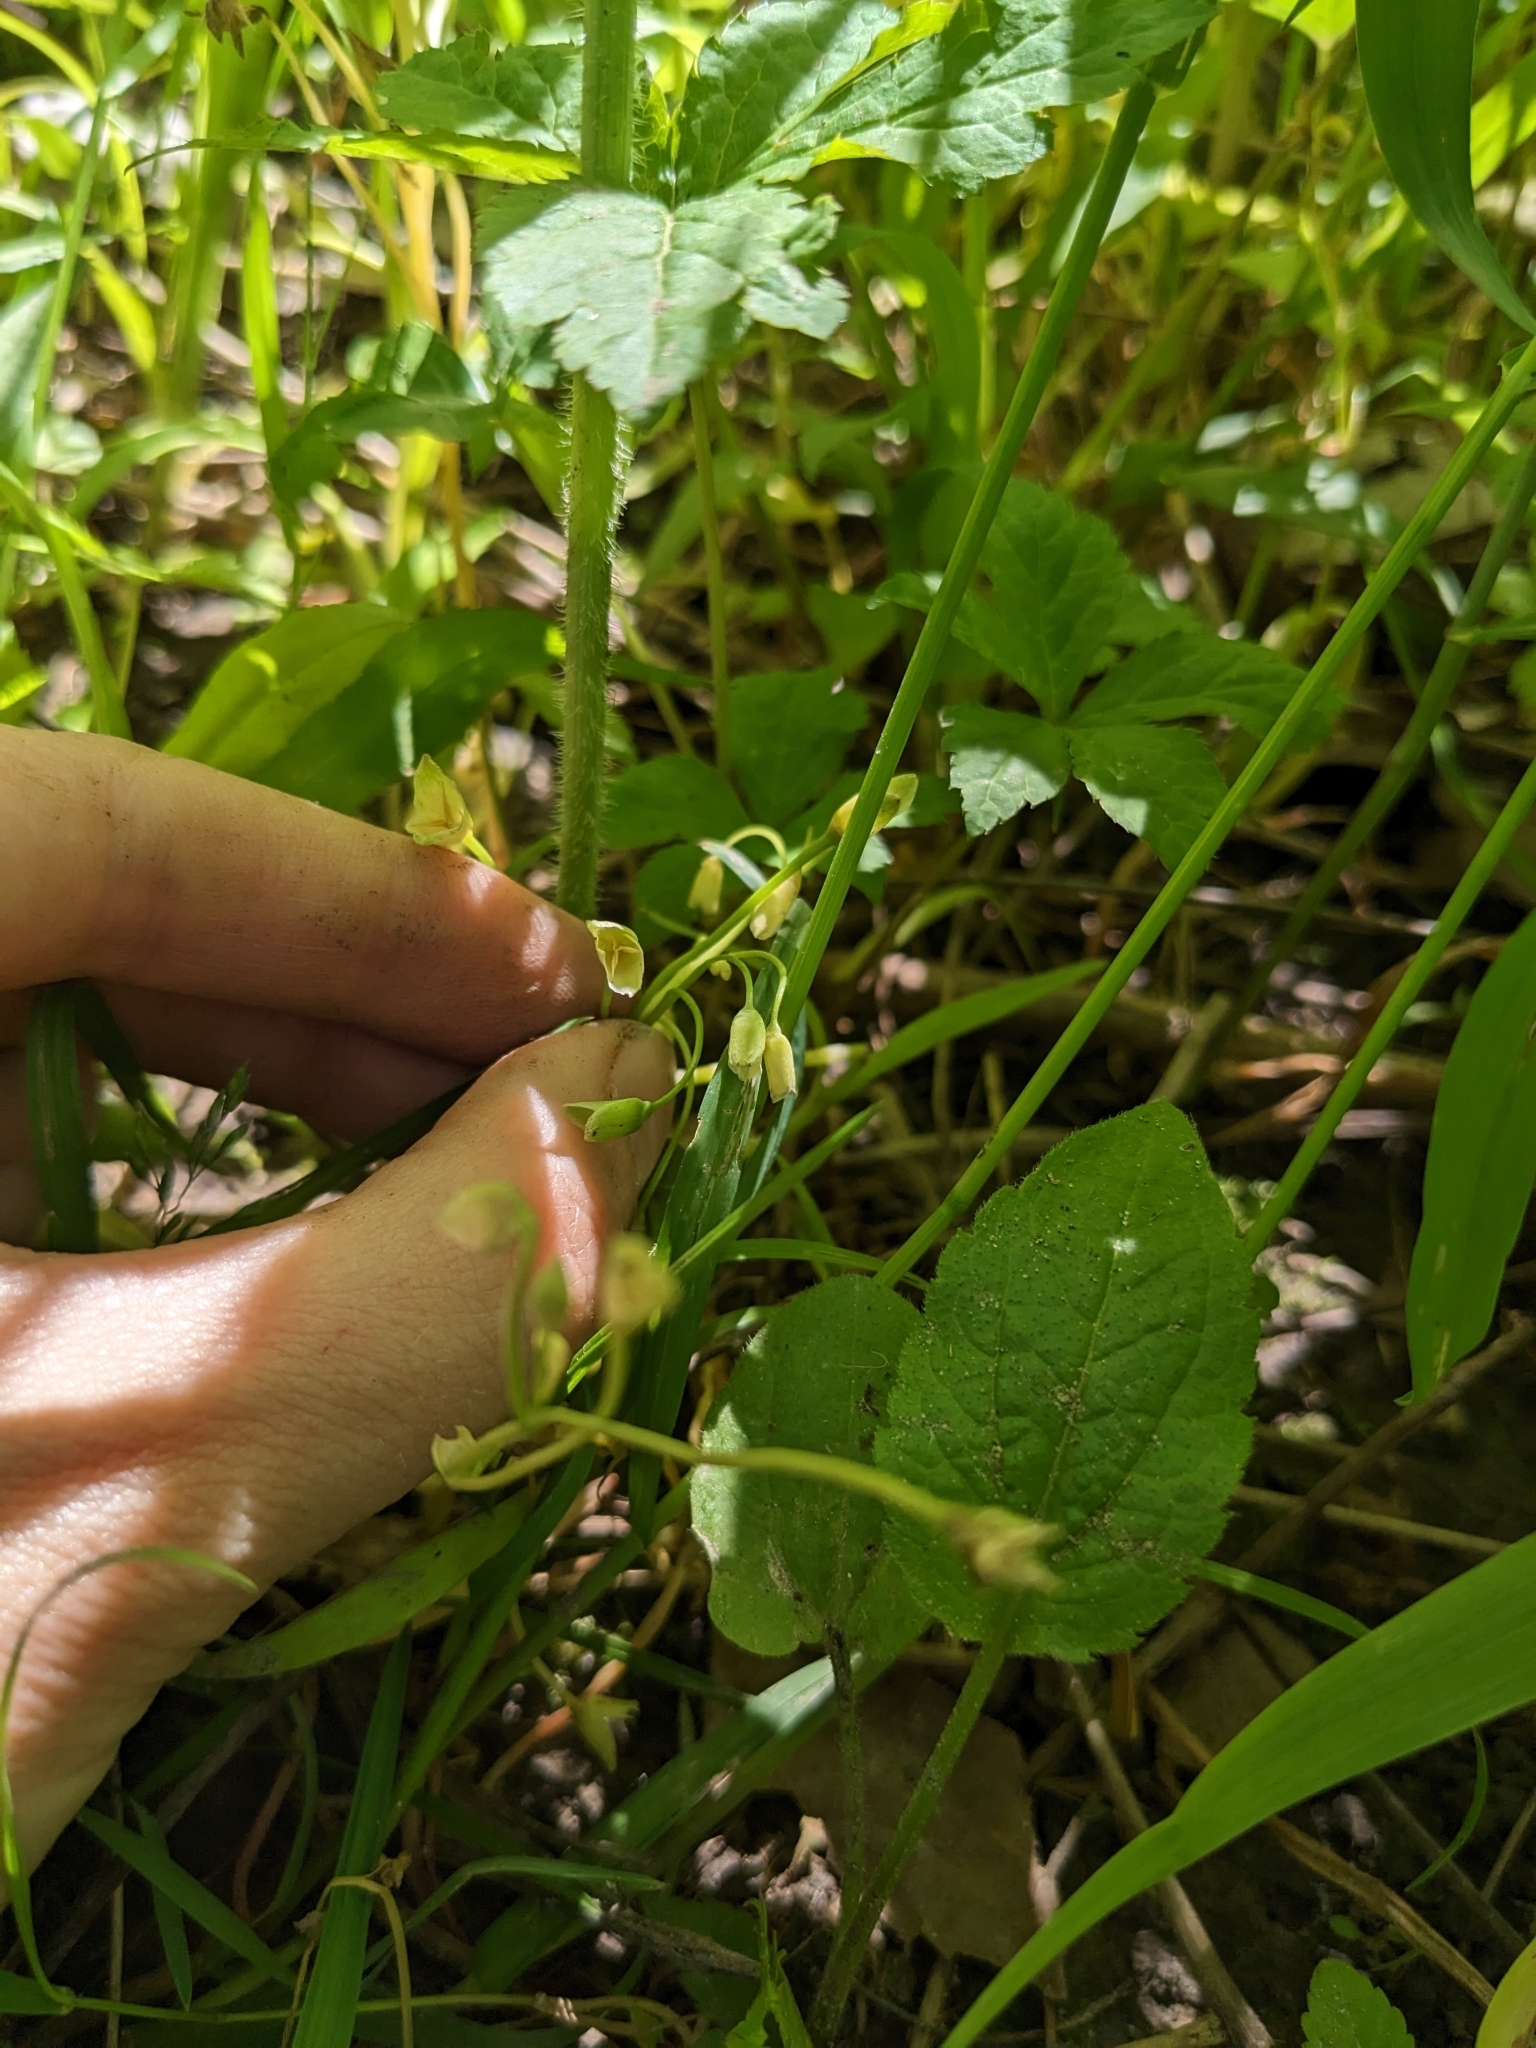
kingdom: Plantae
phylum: Tracheophyta
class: Magnoliopsida
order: Caryophyllales
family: Montiaceae
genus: Claytonia
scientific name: Claytonia virginica
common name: Virginia springbeauty
